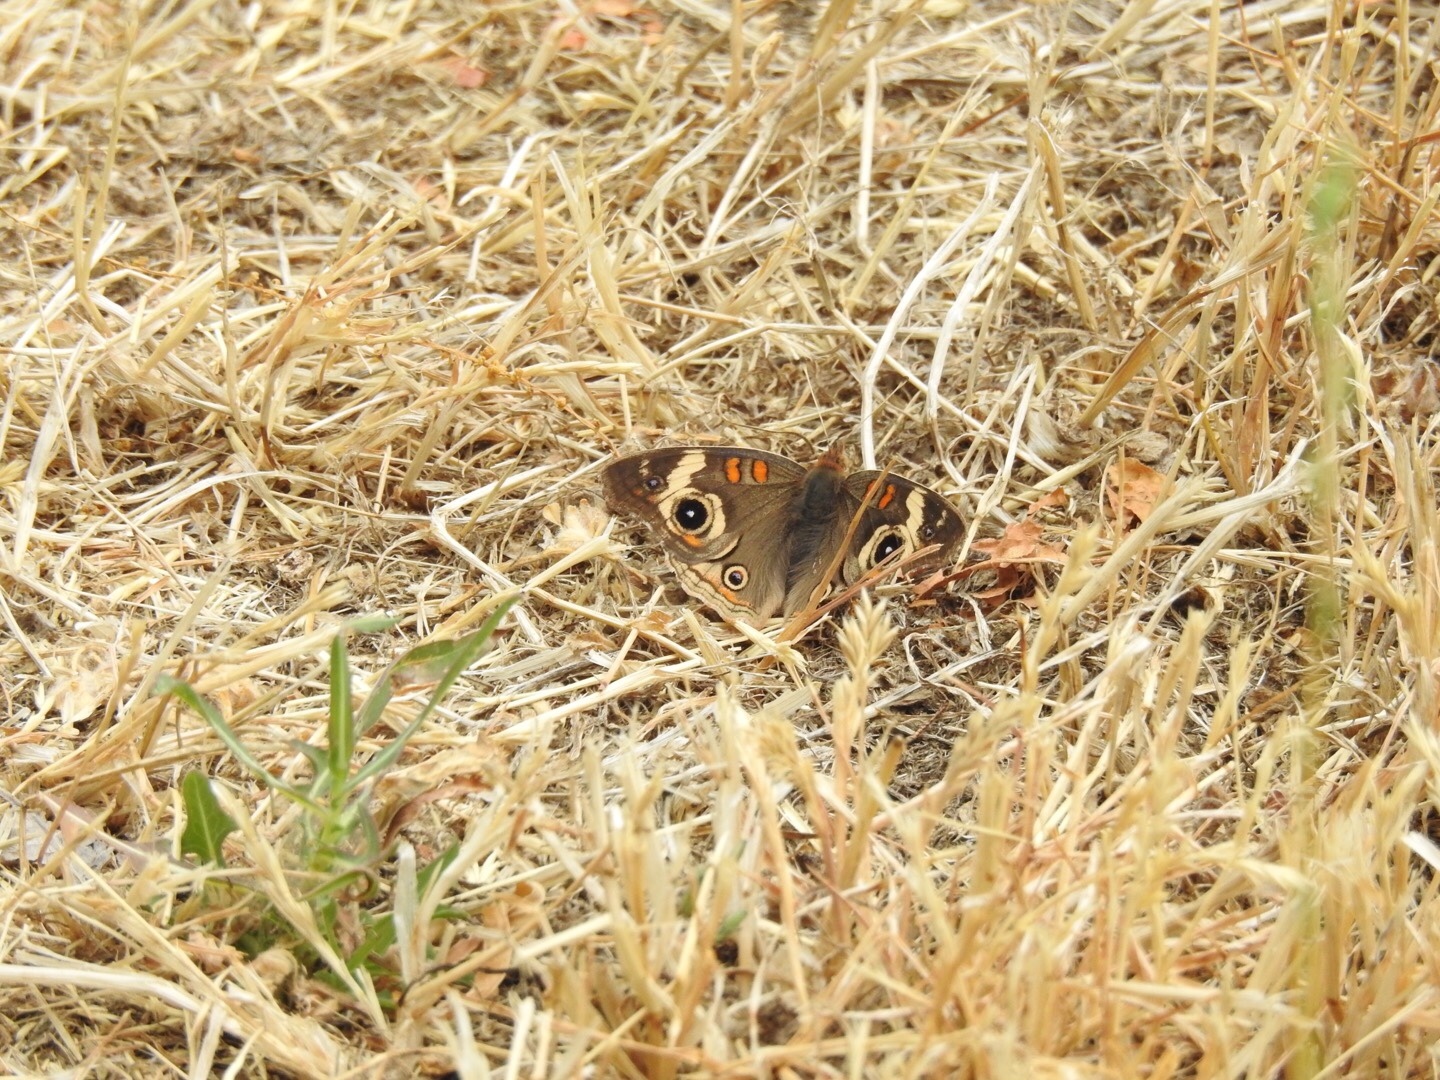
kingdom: Animalia
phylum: Arthropoda
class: Insecta
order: Lepidoptera
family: Nymphalidae
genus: Junonia
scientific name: Junonia grisea
